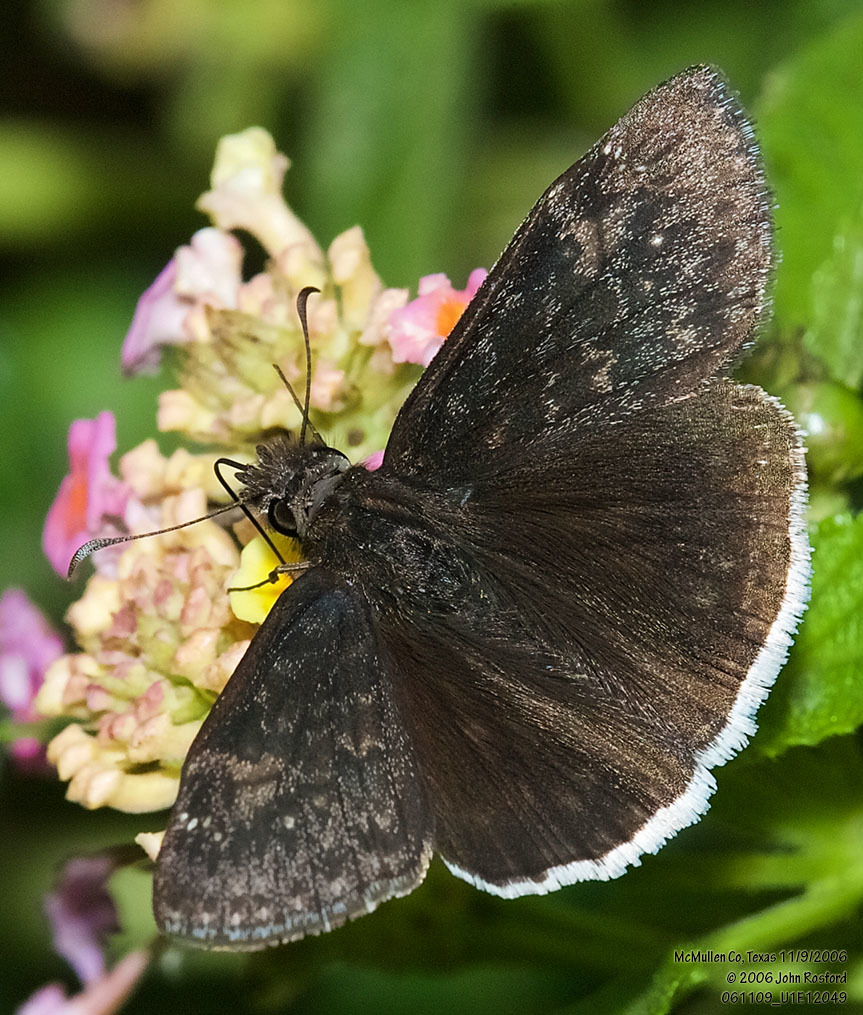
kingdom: Animalia
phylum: Arthropoda
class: Insecta
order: Lepidoptera
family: Hesperiidae
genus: Erynnis
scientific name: Erynnis funeralis
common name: Funereal duskywing
